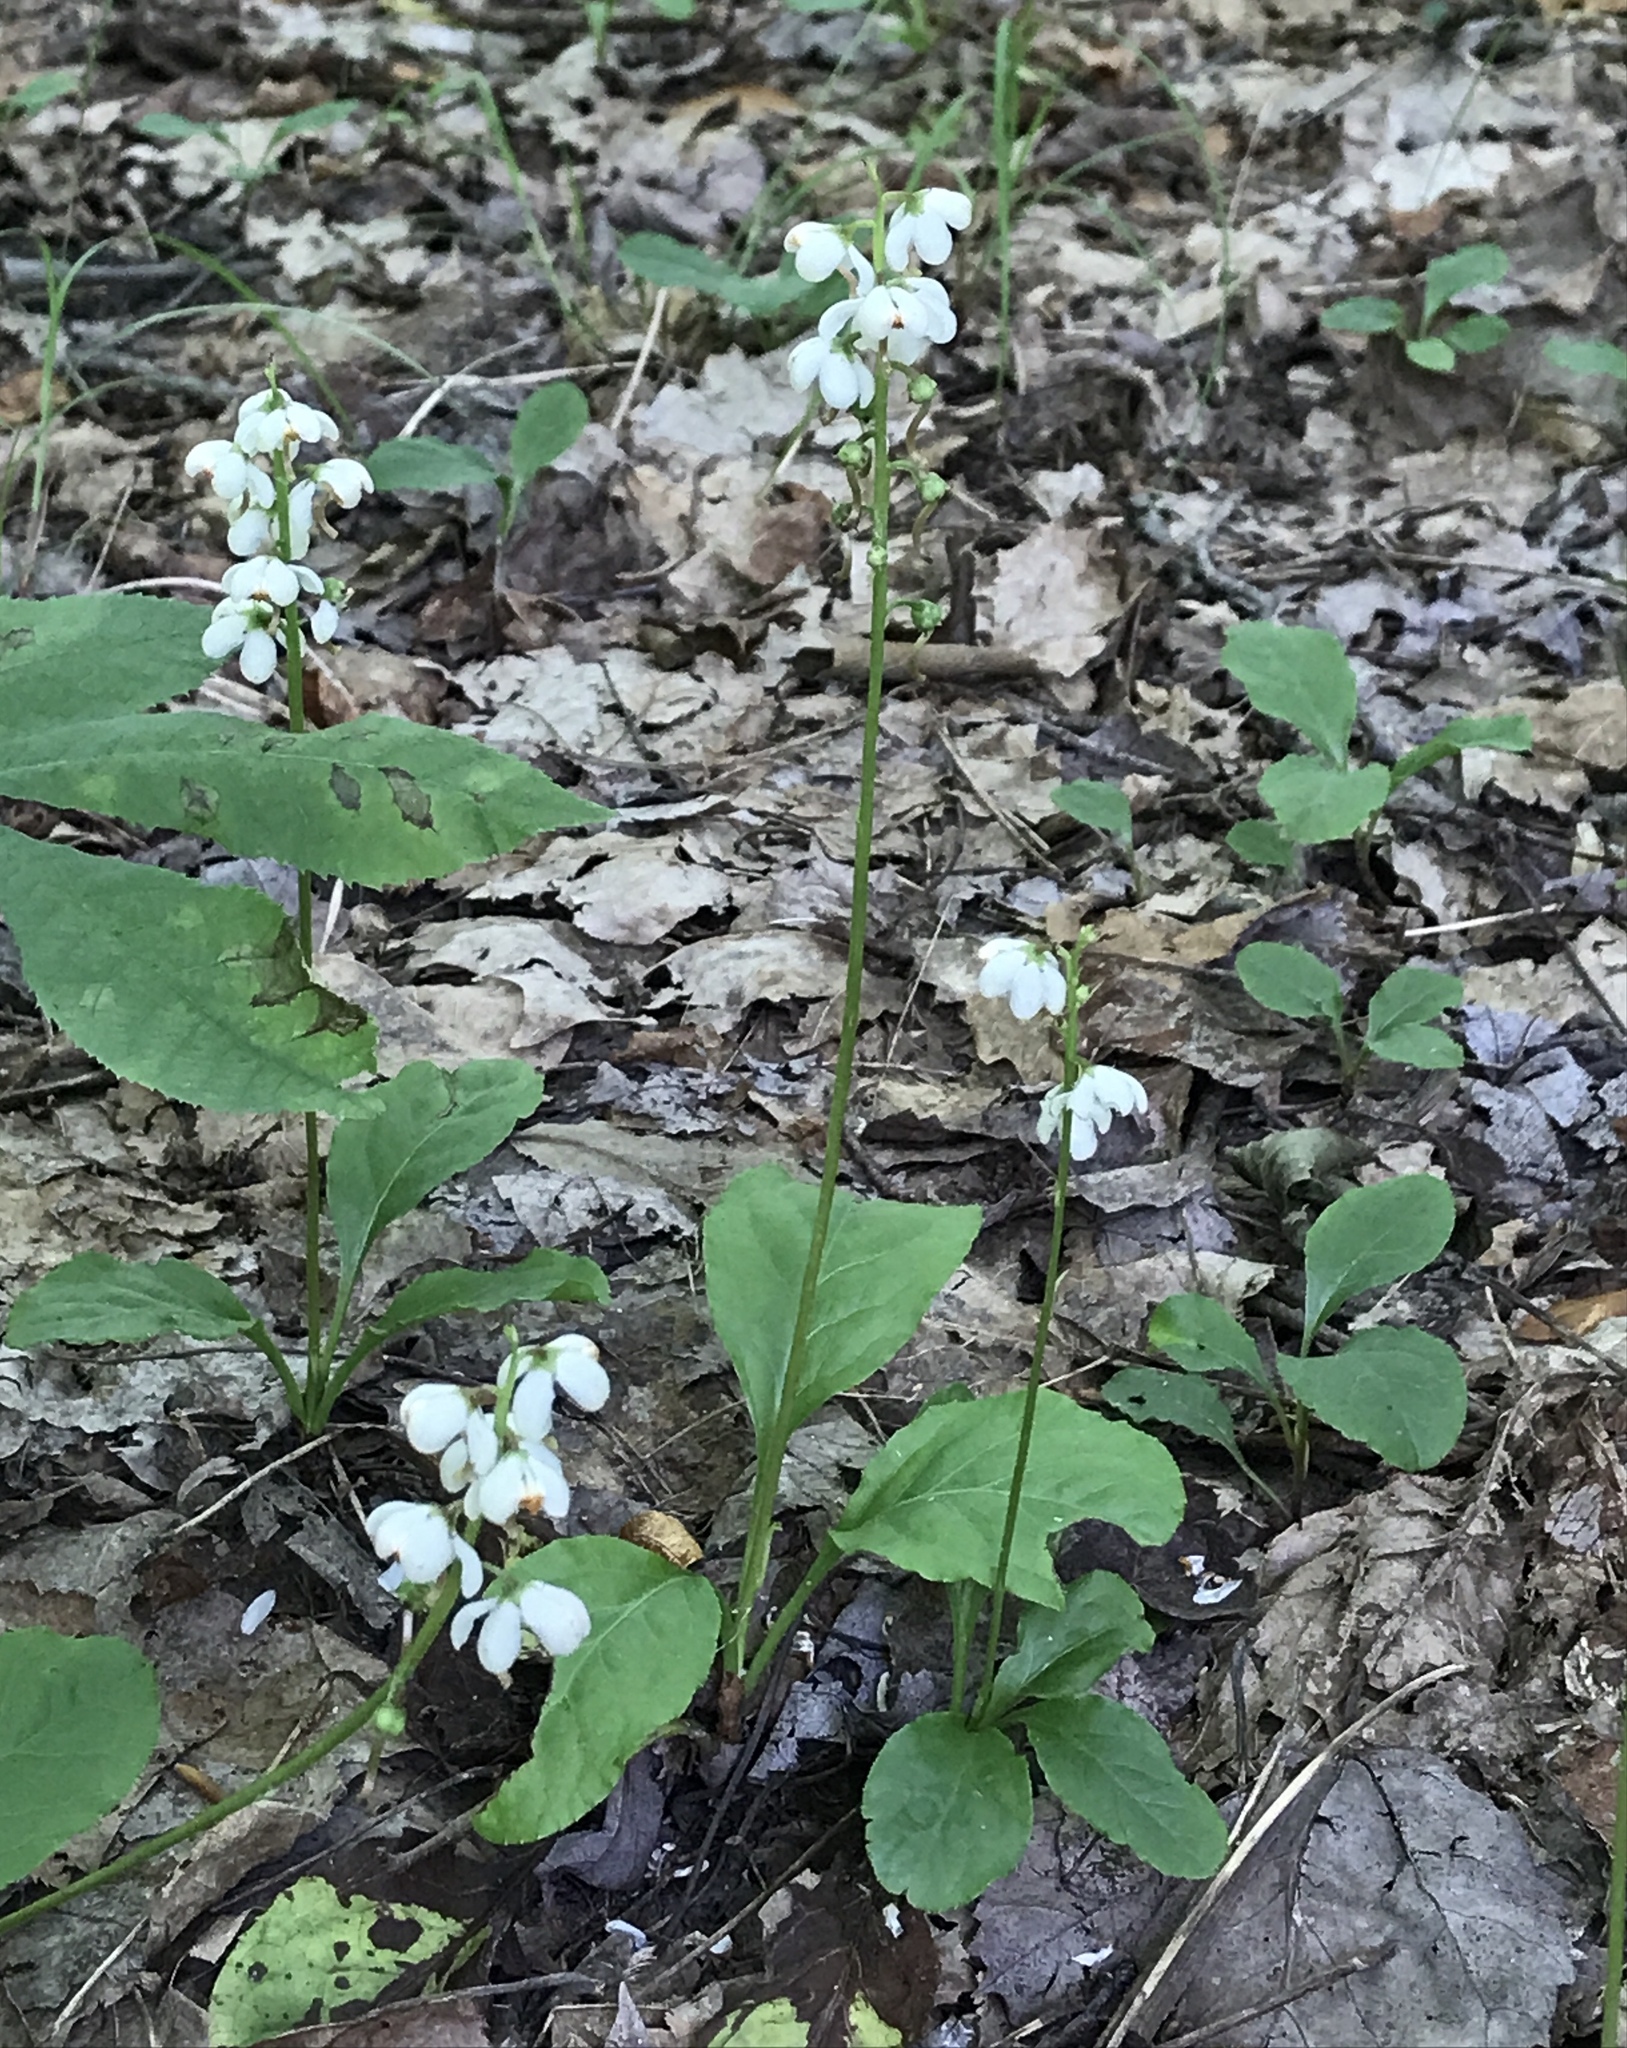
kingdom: Plantae
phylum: Tracheophyta
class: Magnoliopsida
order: Ericales
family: Ericaceae
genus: Pyrola
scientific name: Pyrola elliptica
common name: Shinleaf
